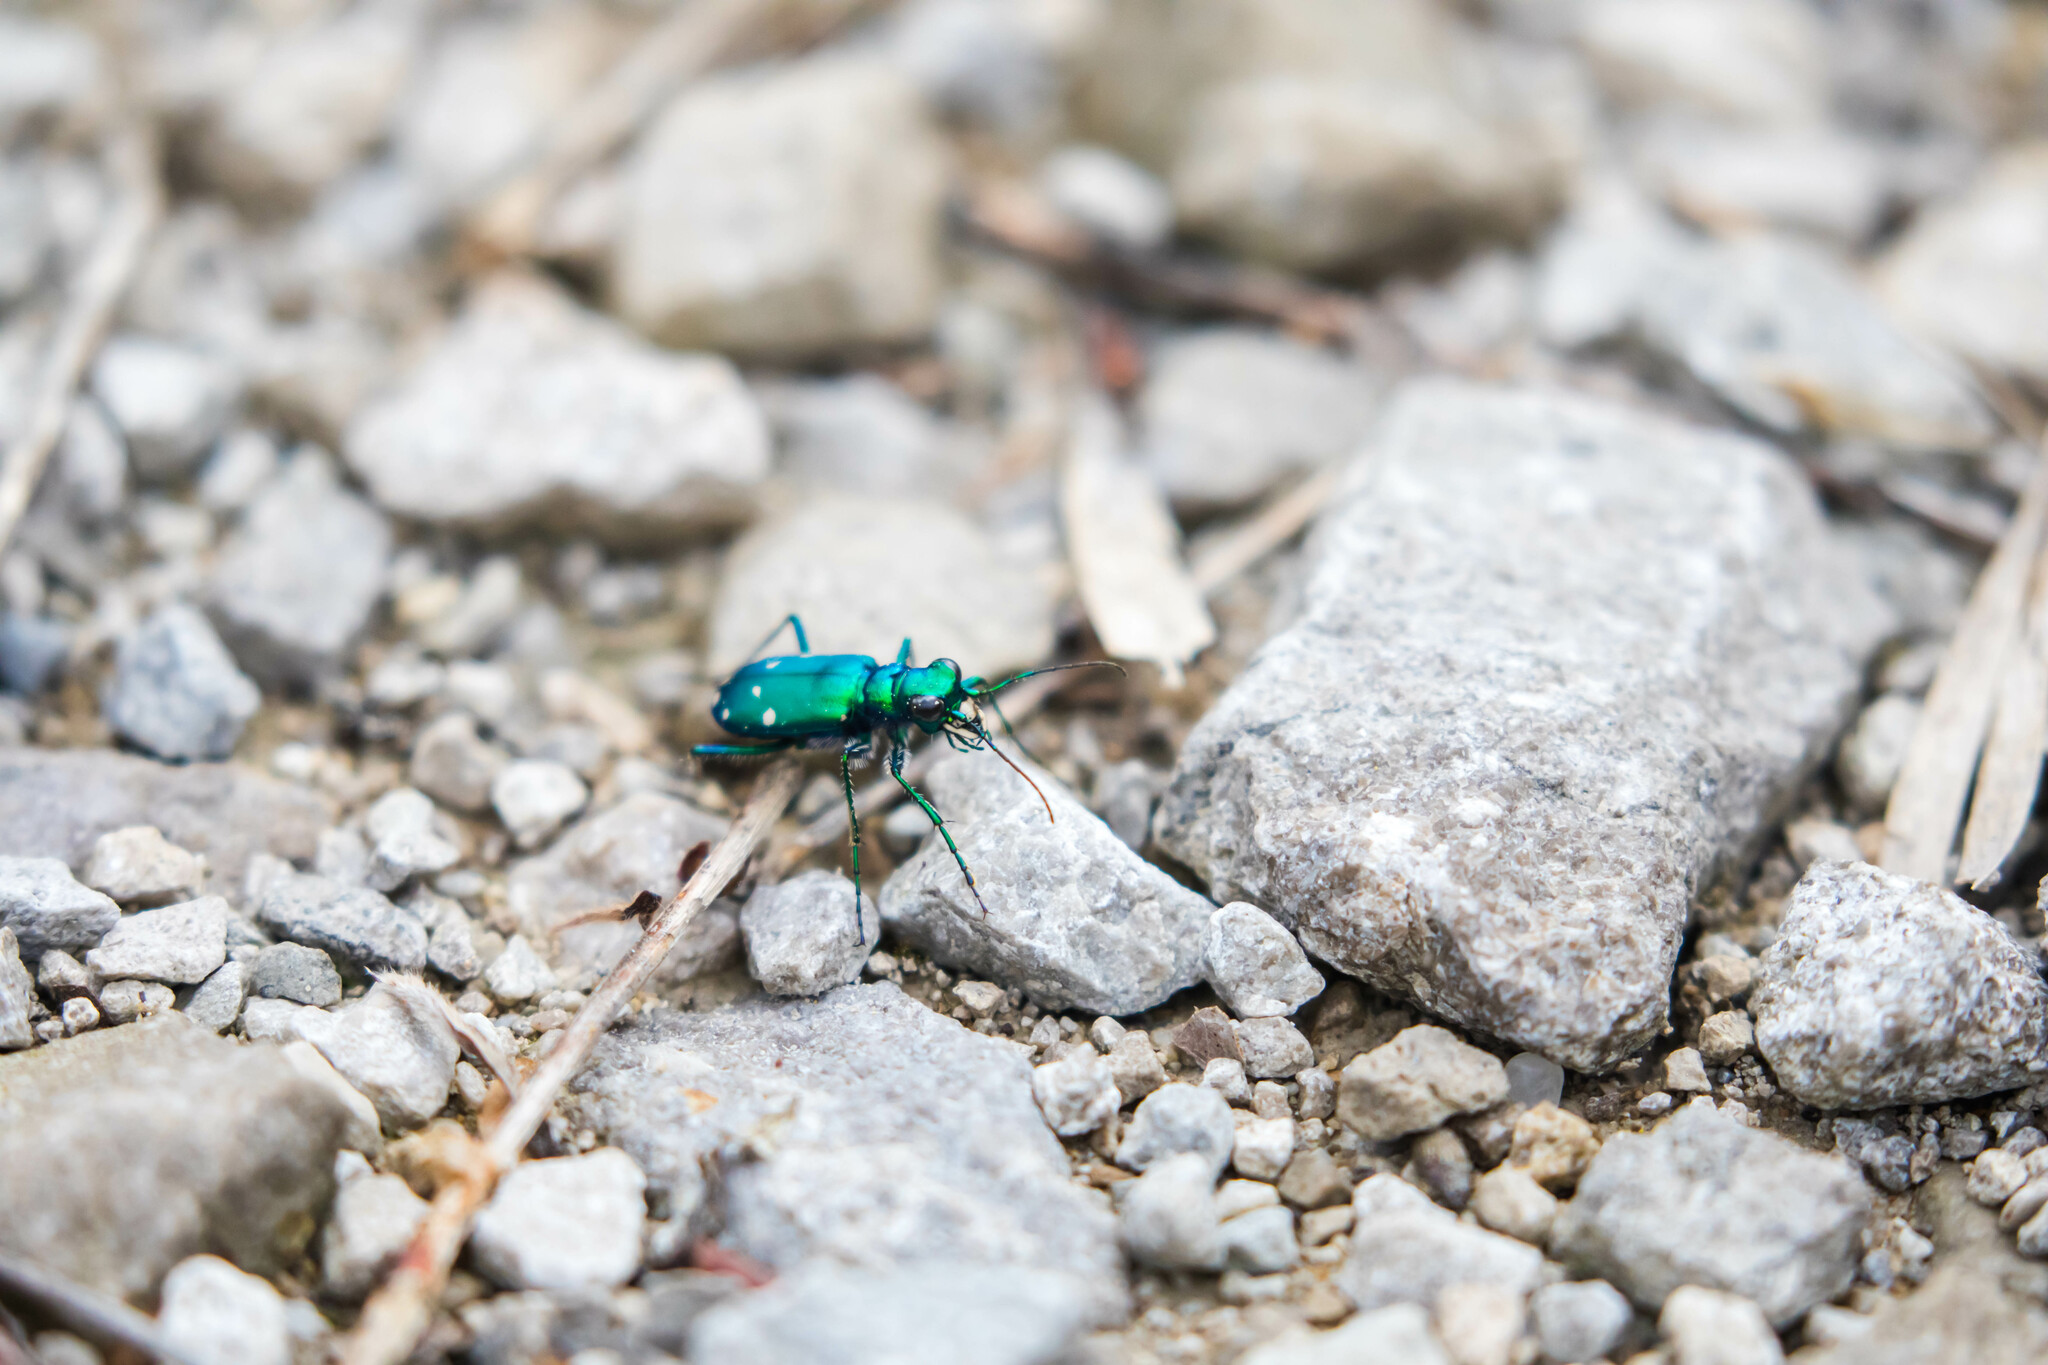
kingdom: Animalia
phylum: Arthropoda
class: Insecta
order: Coleoptera
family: Carabidae
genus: Cicindela
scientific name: Cicindela sexguttata
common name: Six-spotted tiger beetle
